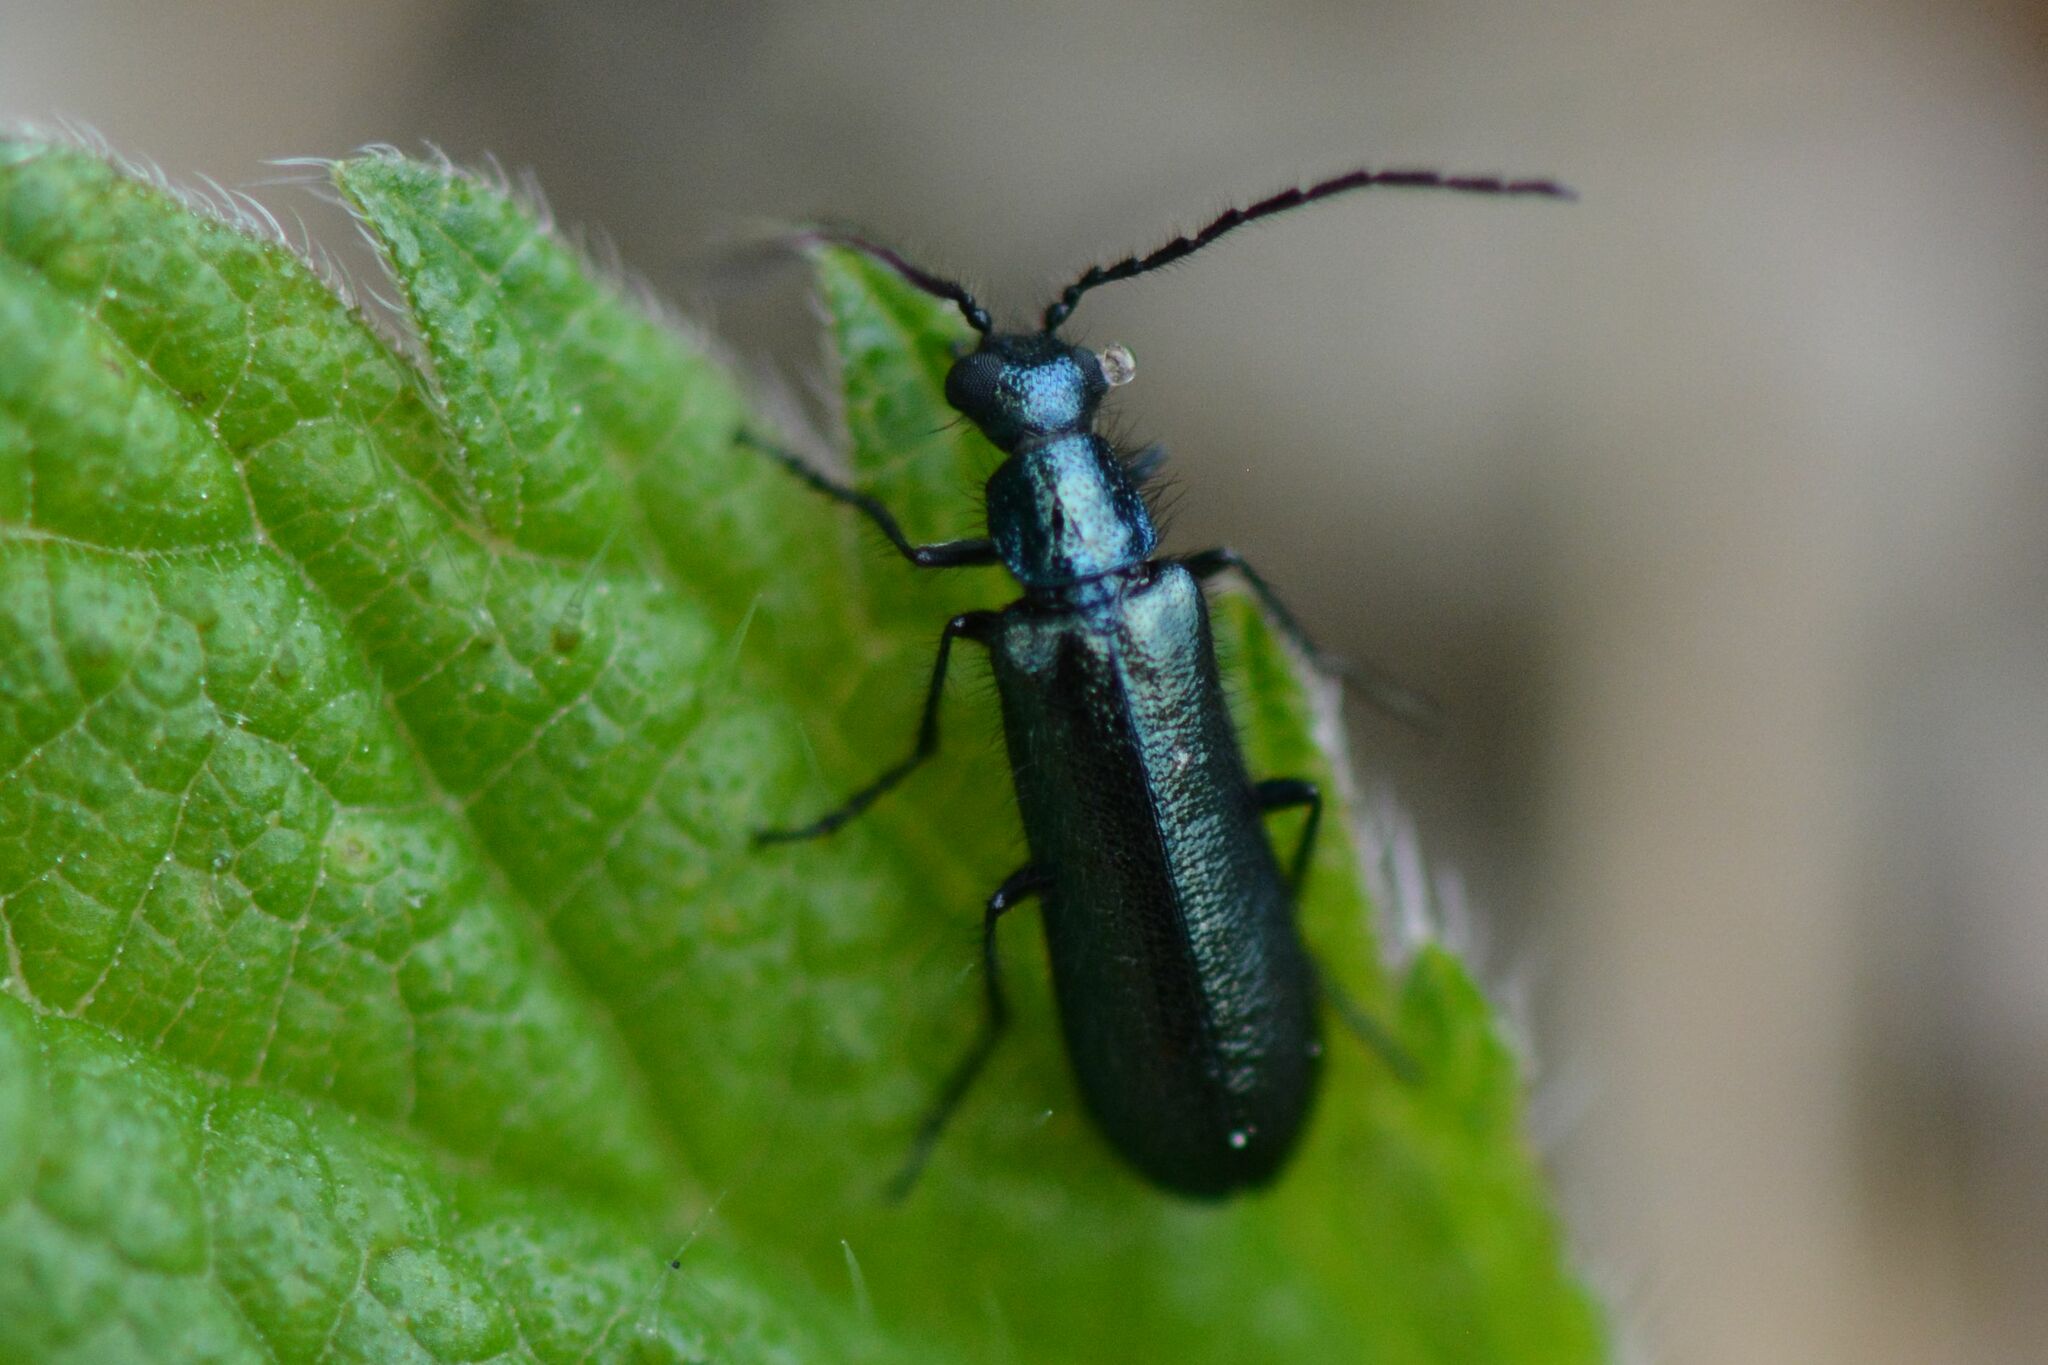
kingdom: Animalia
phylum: Arthropoda
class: Insecta
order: Coleoptera
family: Melyridae
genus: Dasytes
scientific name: Dasytes caeruleus
